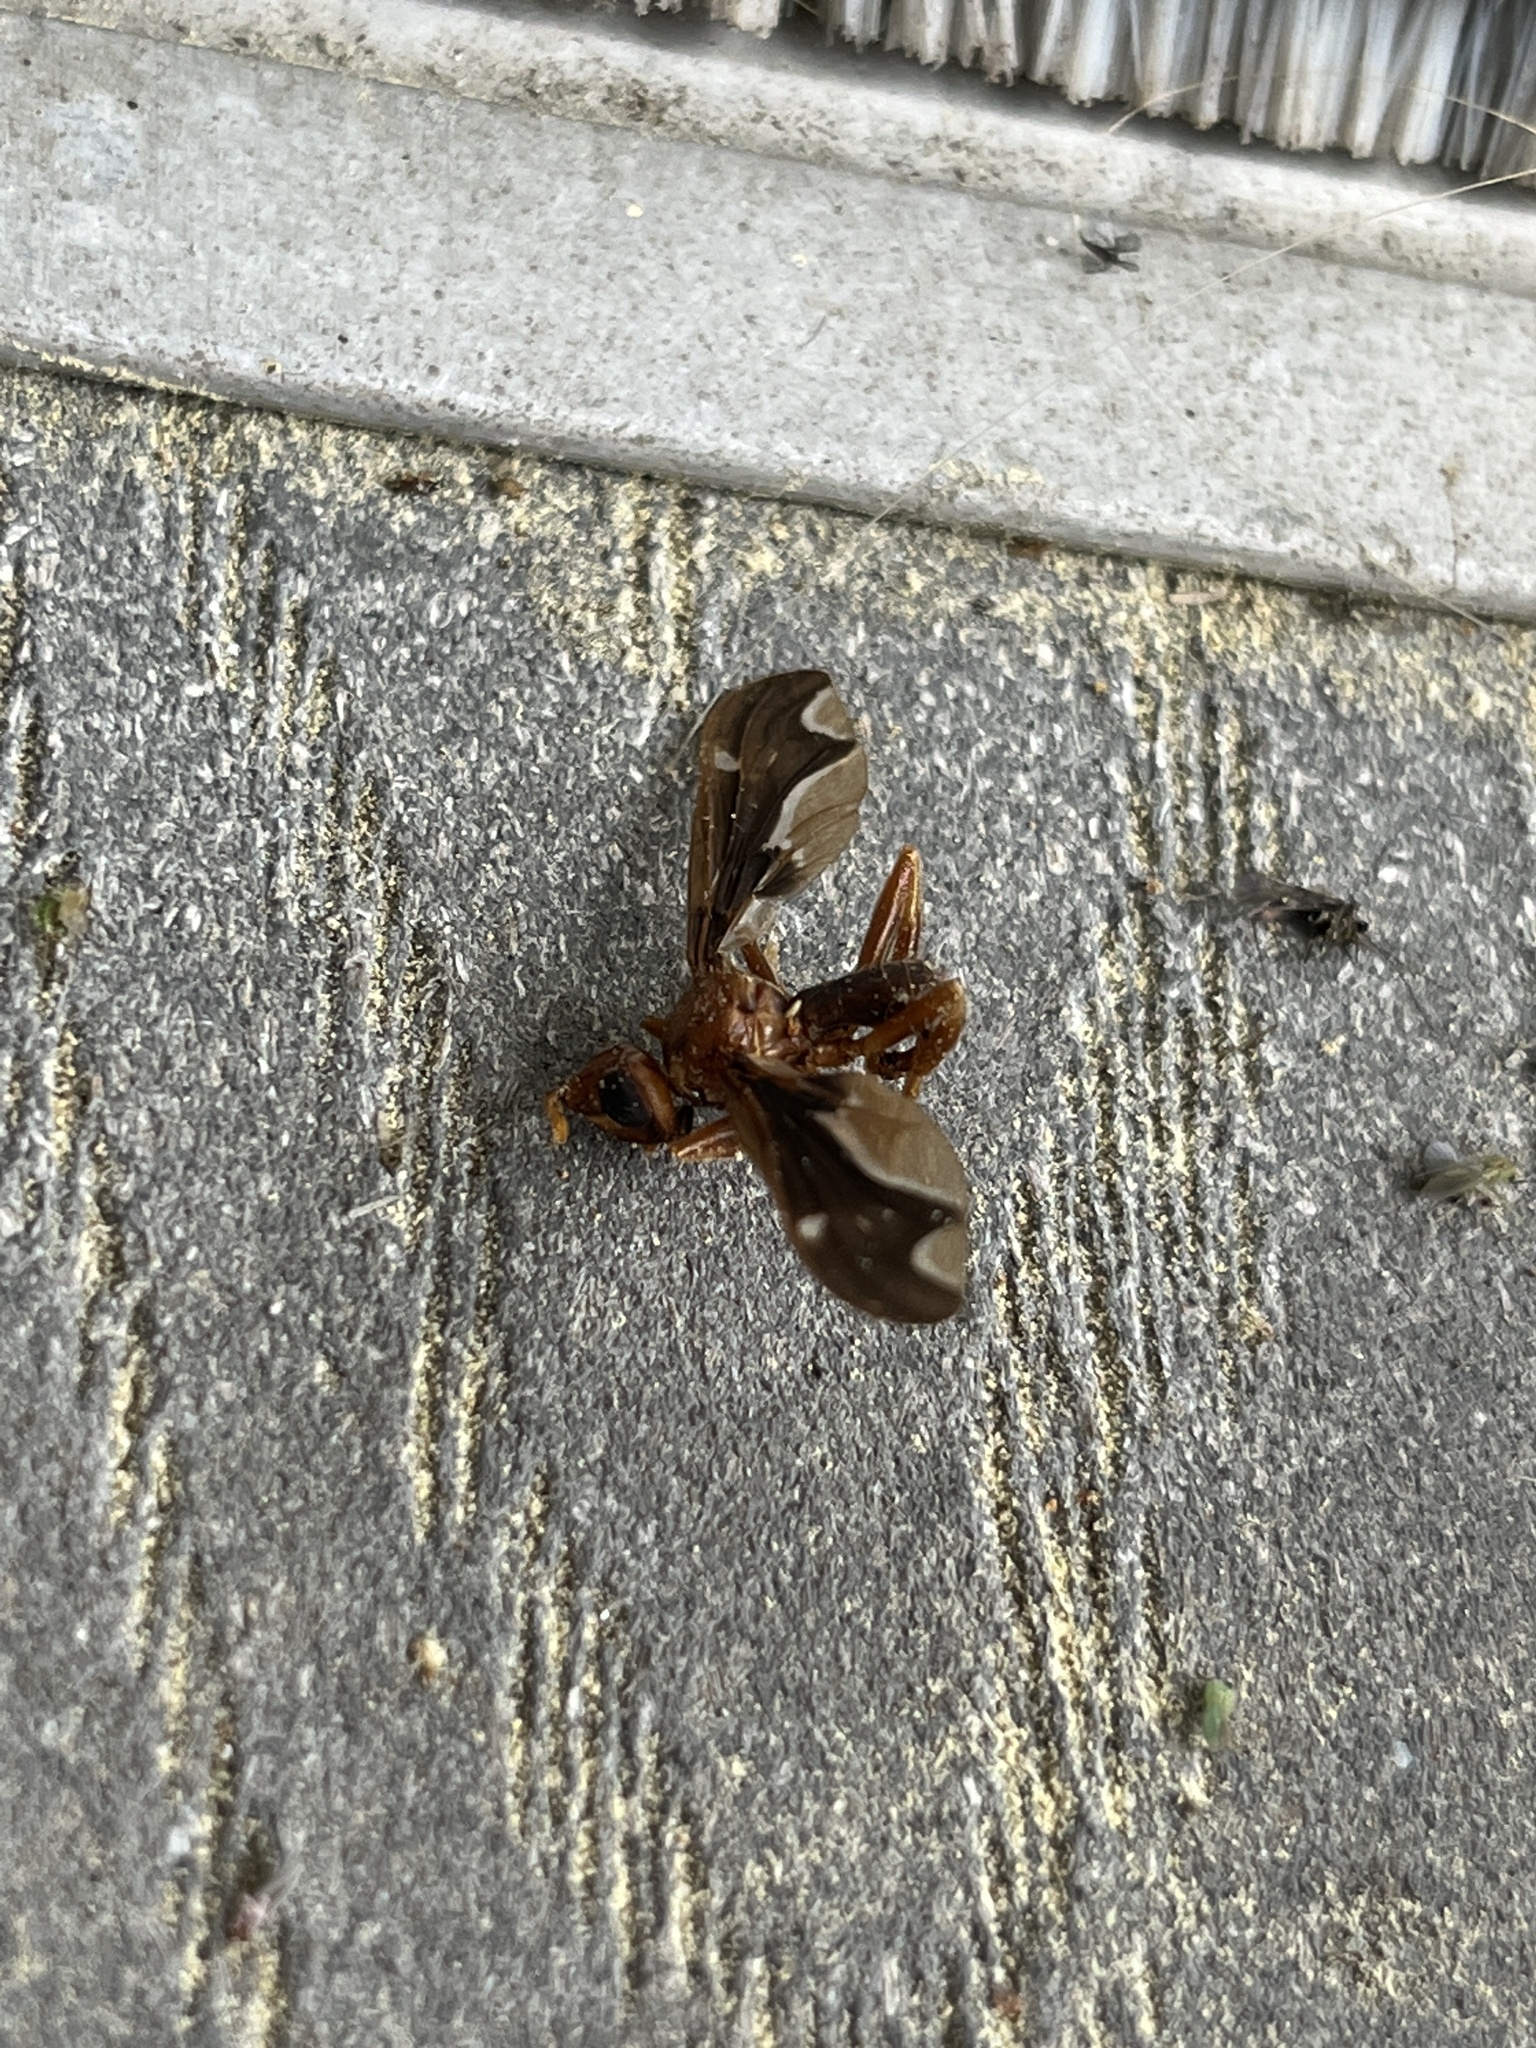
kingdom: Animalia
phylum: Arthropoda
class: Insecta
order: Diptera
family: Pyrgotidae
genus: Pyrgota
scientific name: Pyrgota undata
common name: Waved light fly
